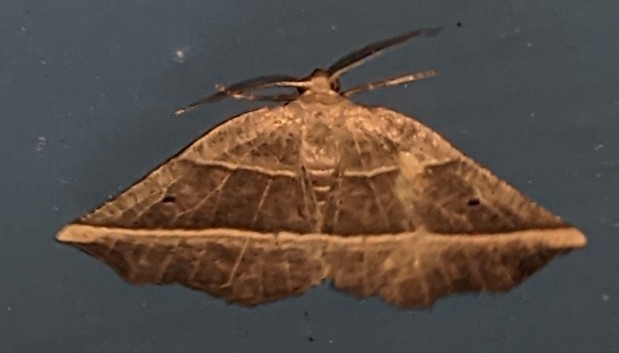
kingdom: Animalia
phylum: Arthropoda
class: Insecta
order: Lepidoptera
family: Geometridae
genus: Metanema
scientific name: Metanema determinata
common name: Dark metanema
